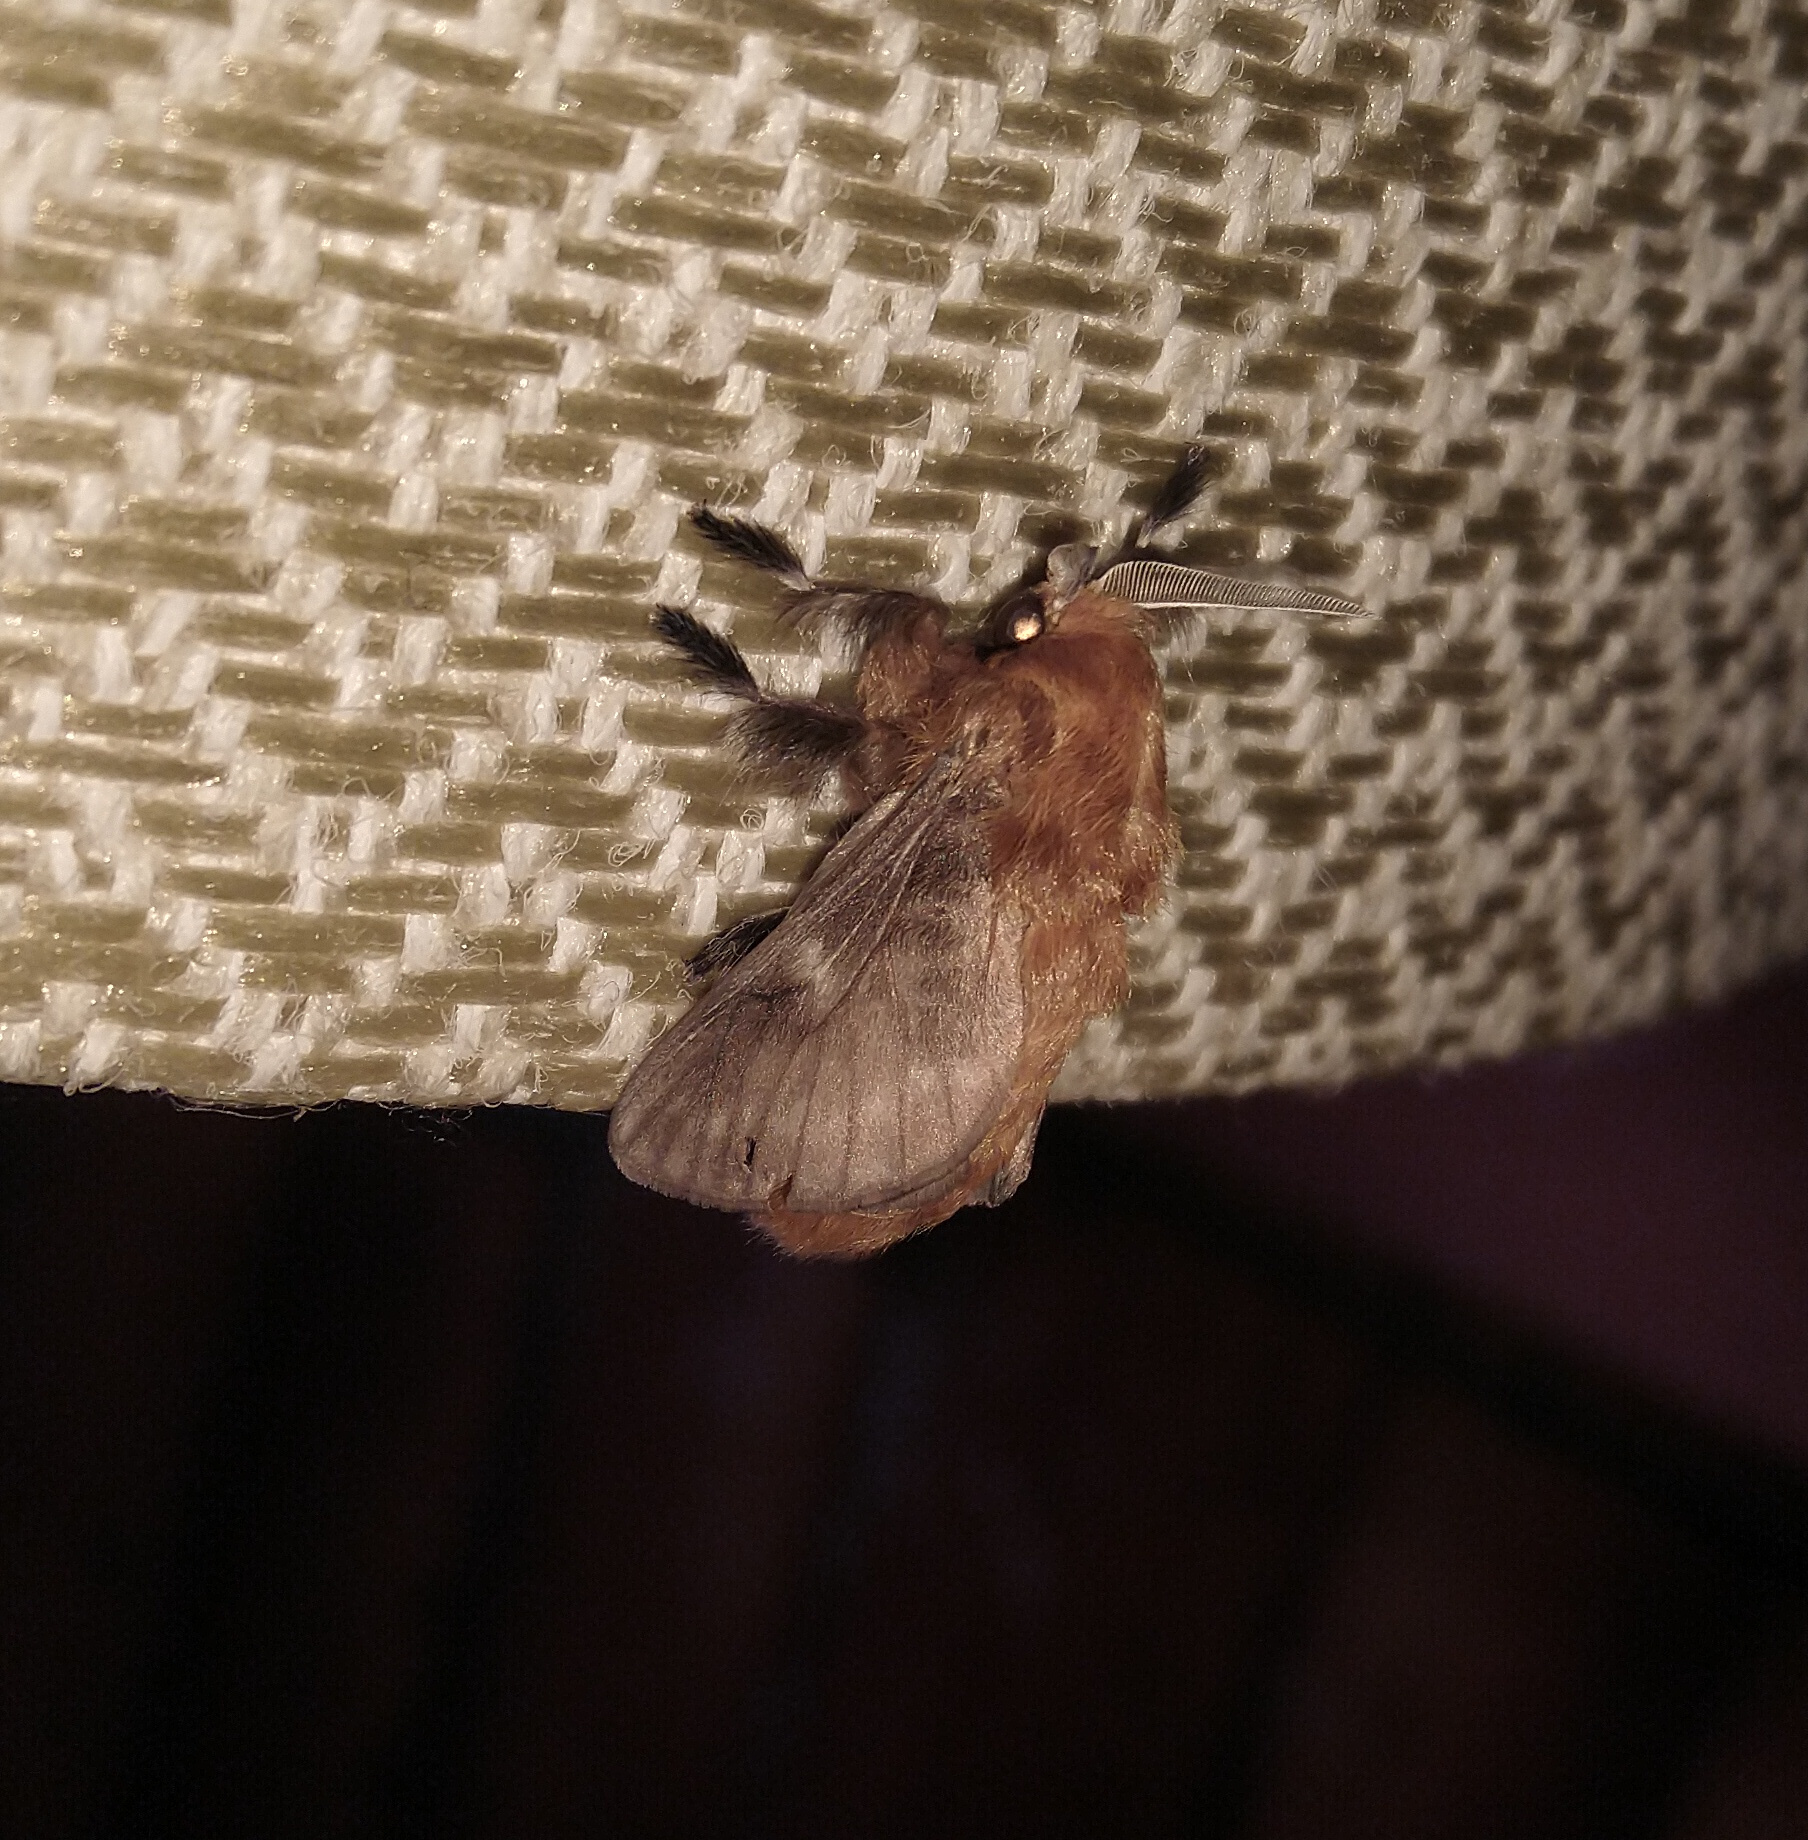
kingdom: Animalia
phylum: Arthropoda
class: Insecta
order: Lepidoptera
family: Megalopygidae
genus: Megalopyge
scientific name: Megalopyge undulata
